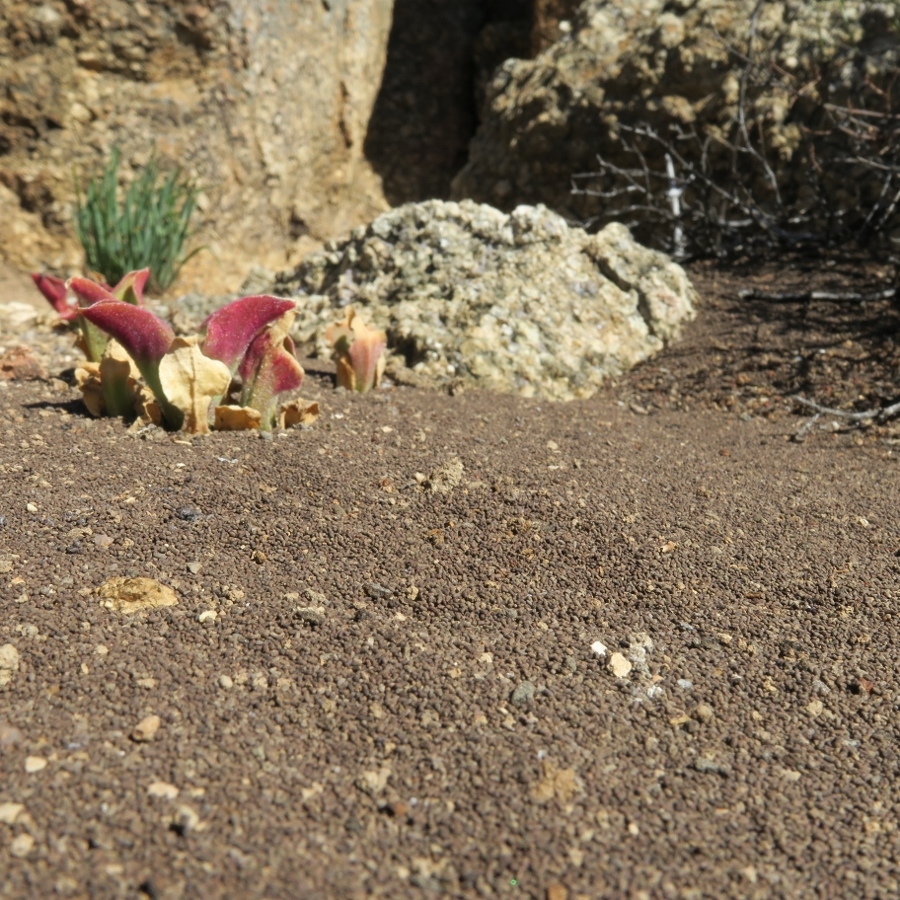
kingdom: Animalia
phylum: Arthropoda
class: Insecta
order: Blattodea
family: Hodotermitidae
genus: Microhodotermes
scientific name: Microhodotermes viator
